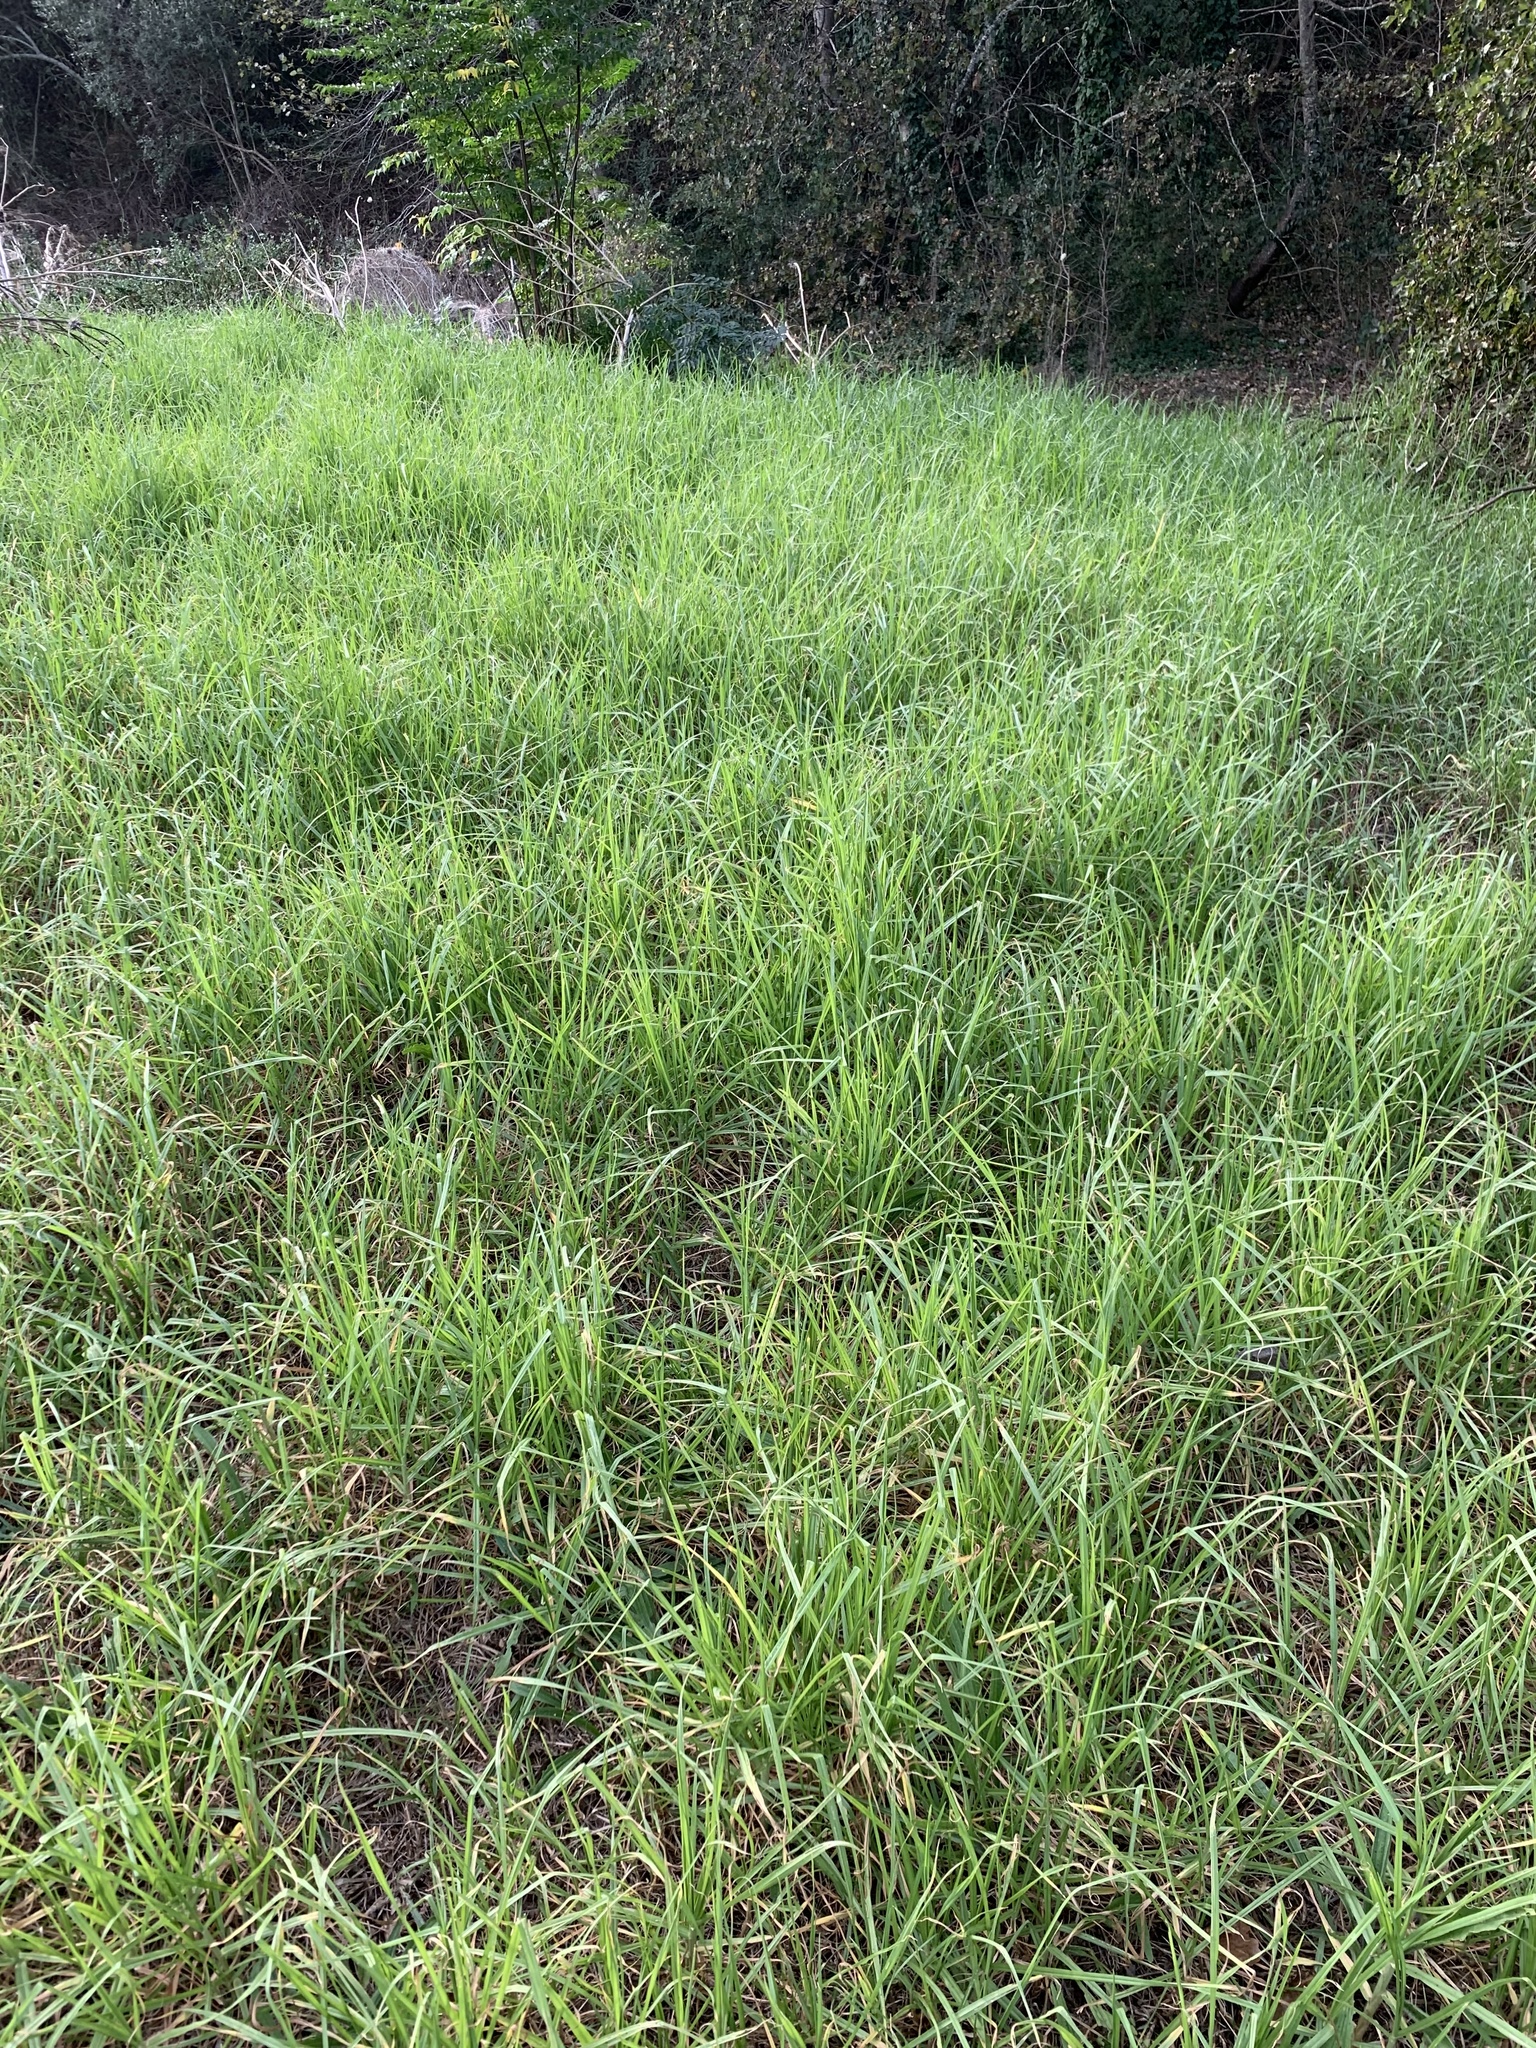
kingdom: Plantae
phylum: Tracheophyta
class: Liliopsida
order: Poales
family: Poaceae
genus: Cenchrus
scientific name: Cenchrus clandestinus
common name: Kikuyugrass
